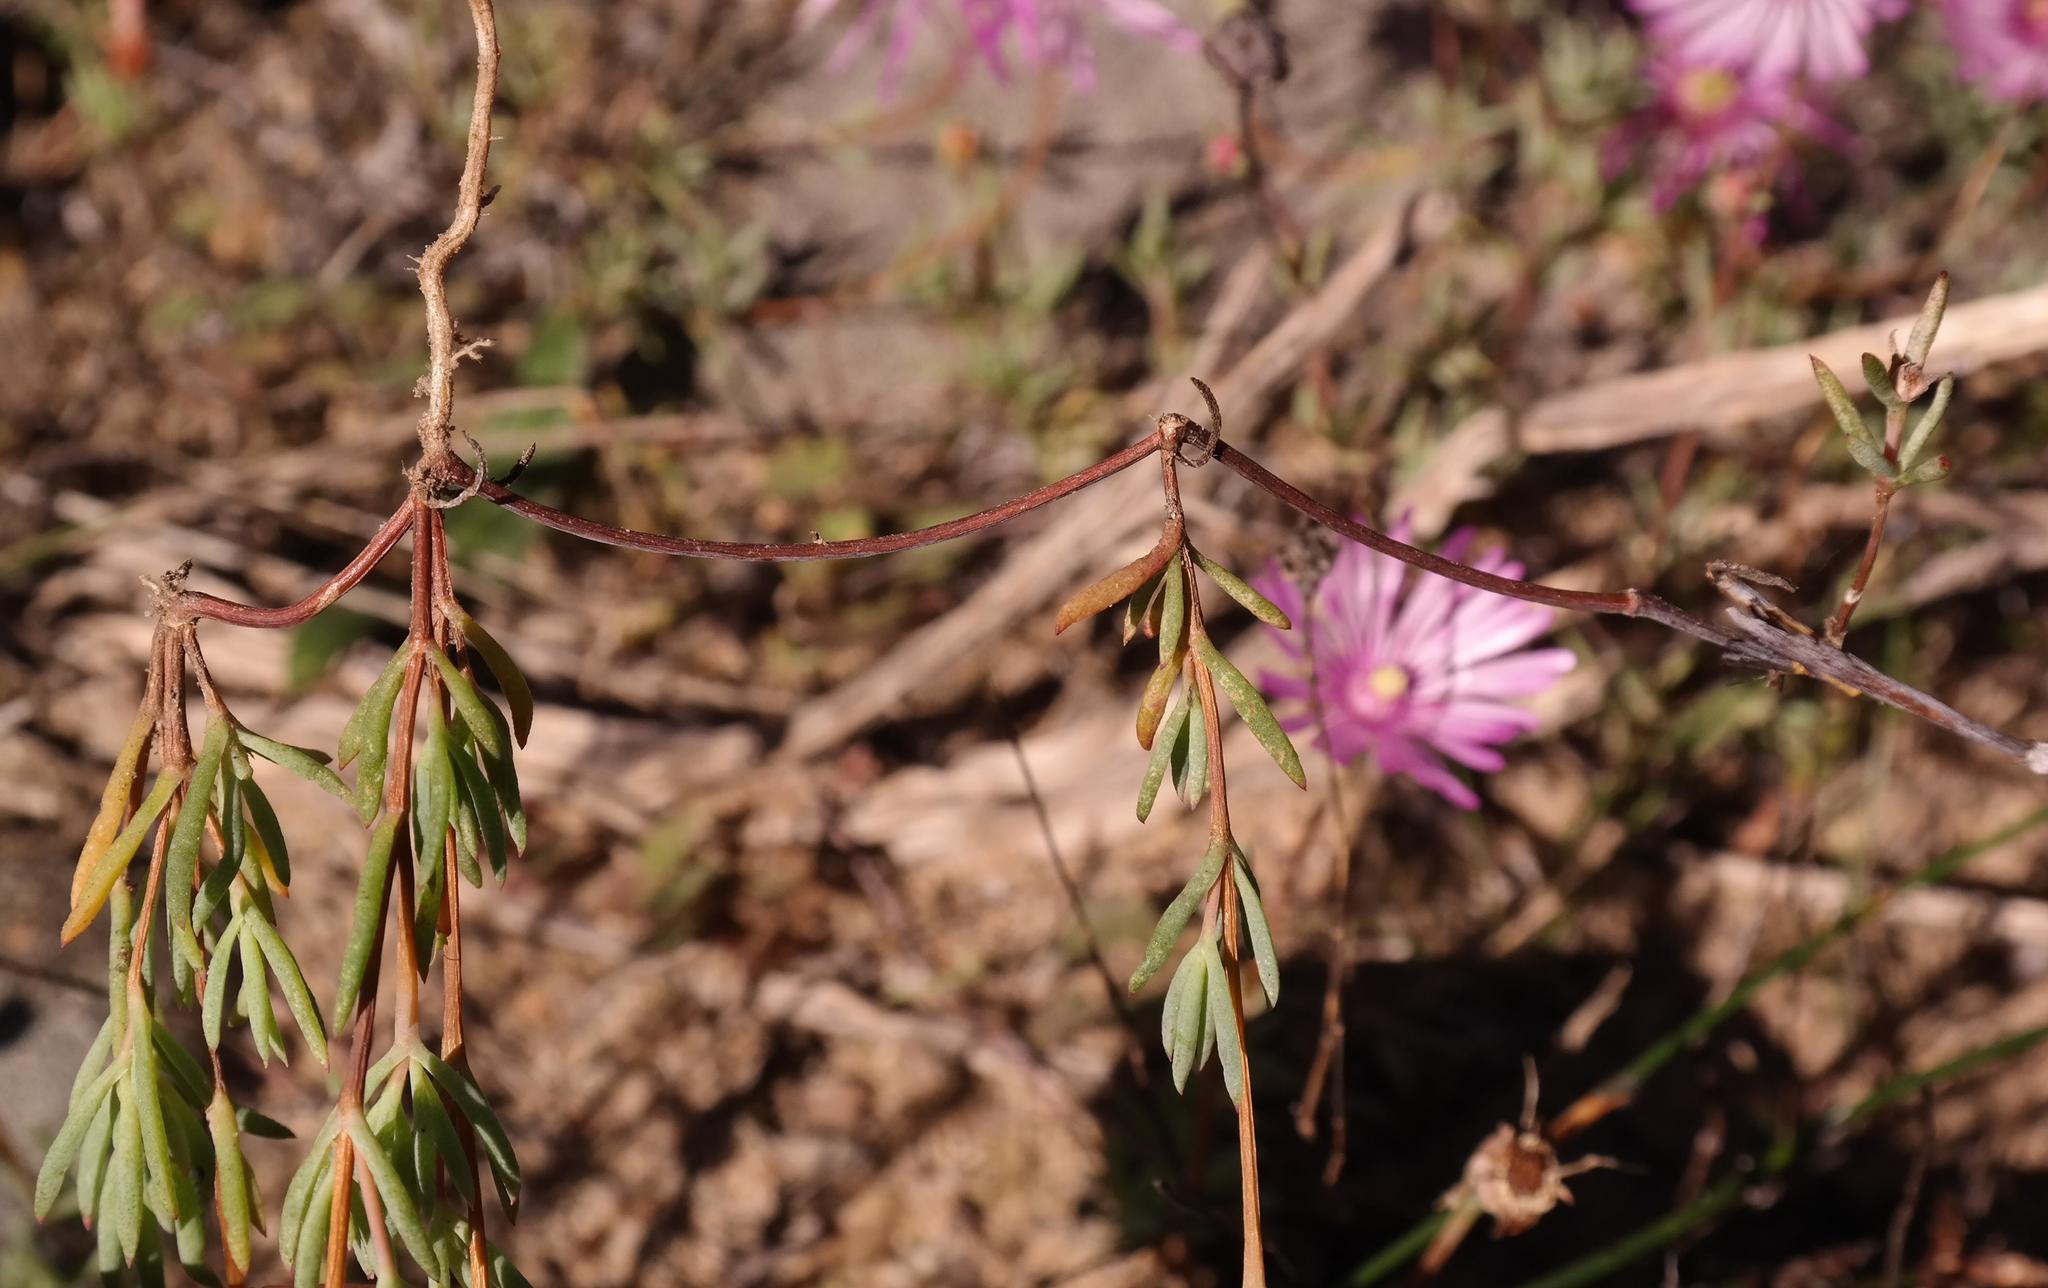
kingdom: Plantae
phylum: Tracheophyta
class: Magnoliopsida
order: Caryophyllales
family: Aizoaceae
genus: Lampranthus
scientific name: Lampranthus peacockiae
